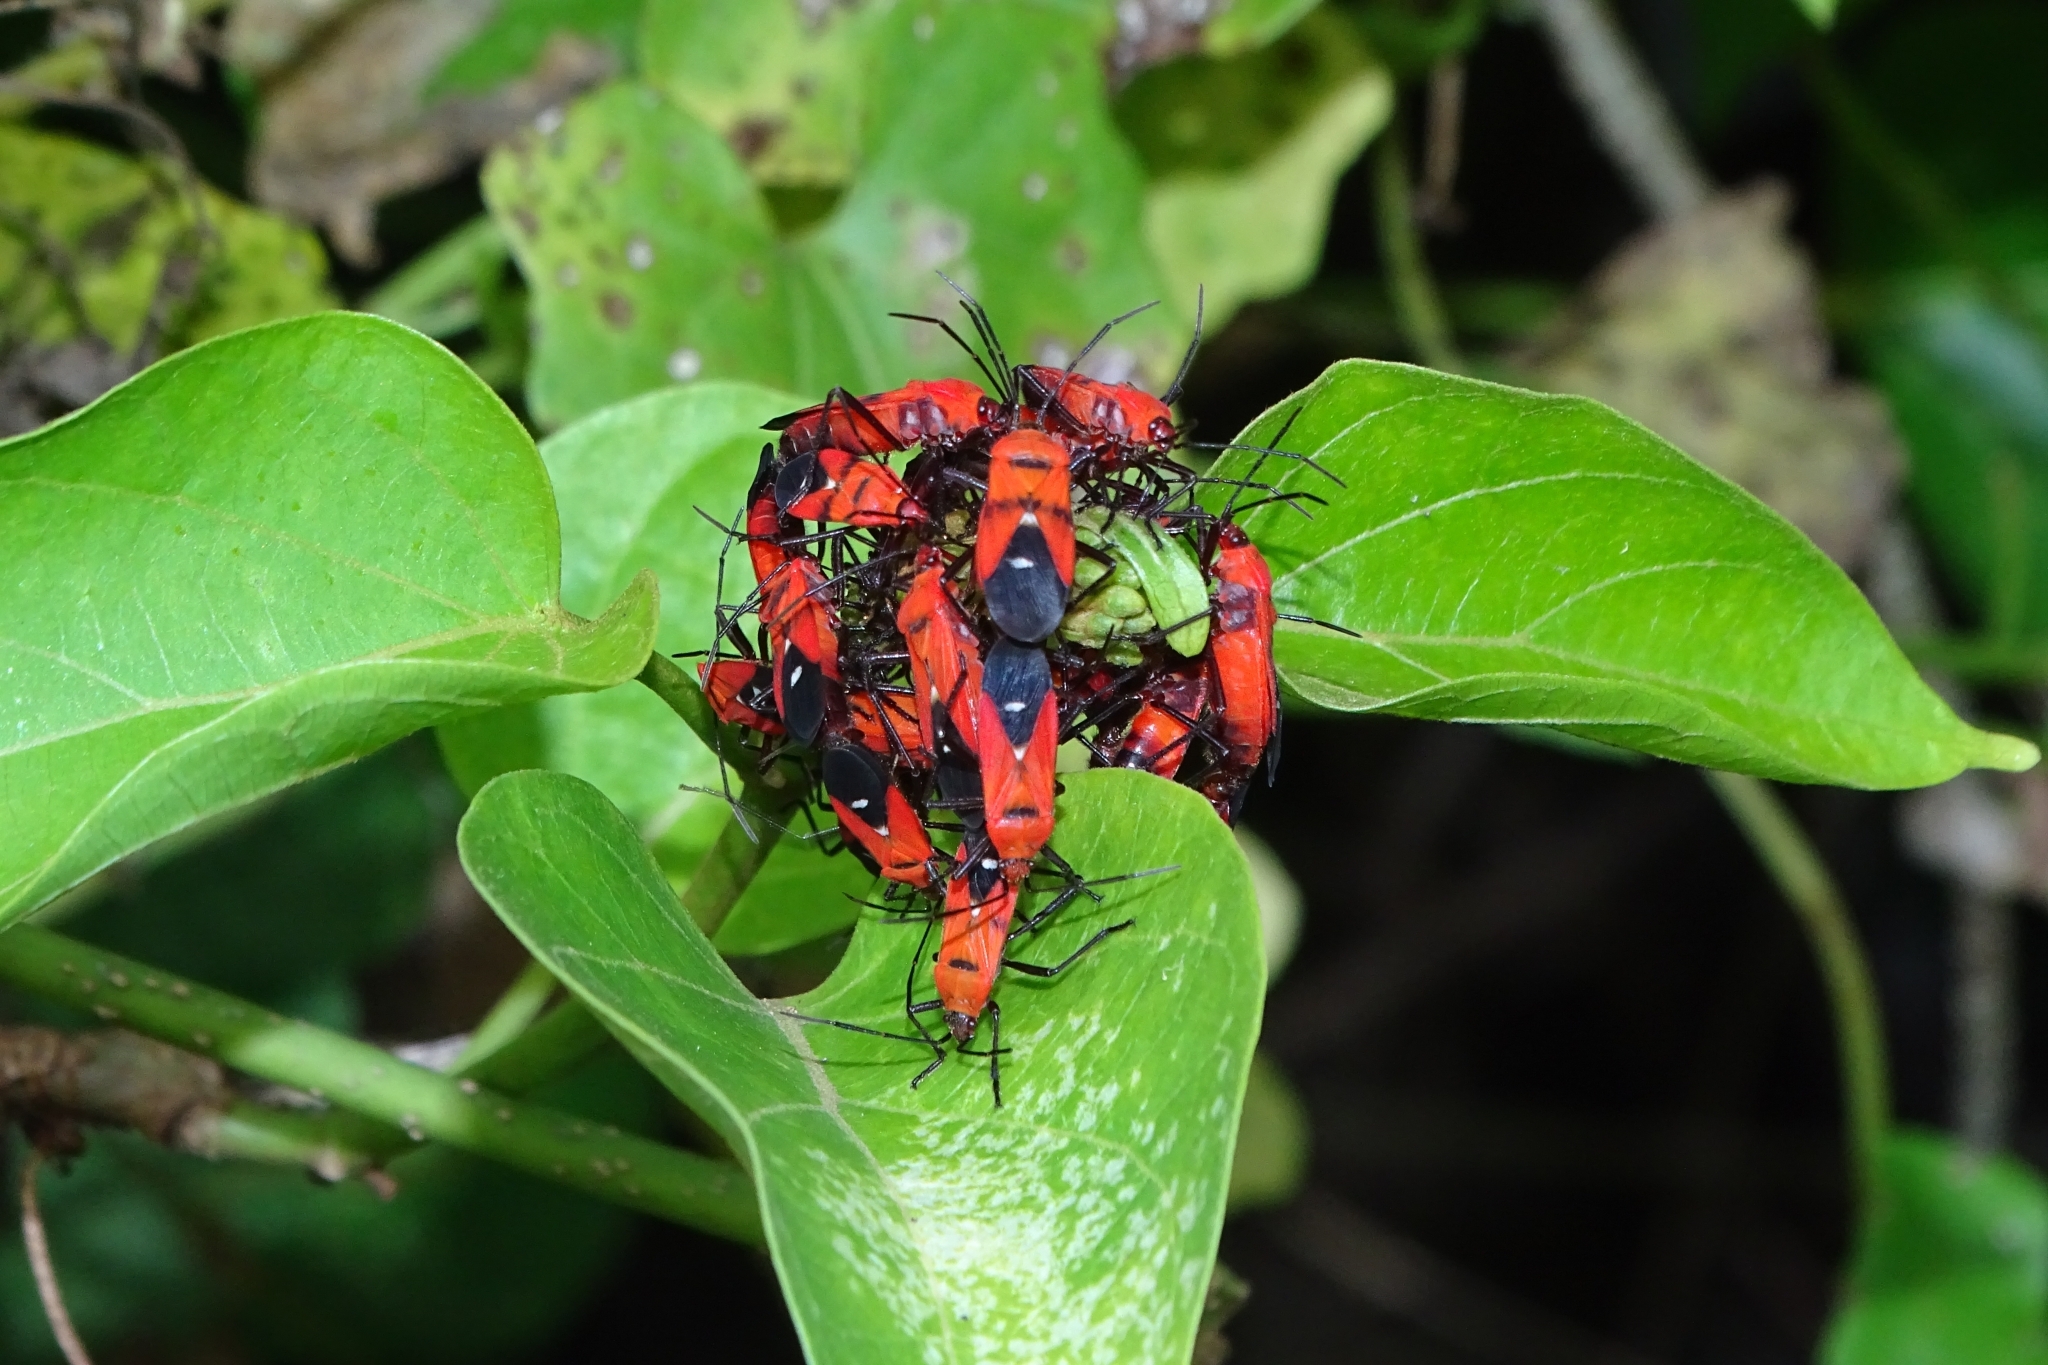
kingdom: Animalia
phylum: Arthropoda
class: Insecta
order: Hemiptera
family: Lygaeidae
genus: Oncopeltus
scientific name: Oncopeltus nigriceps
